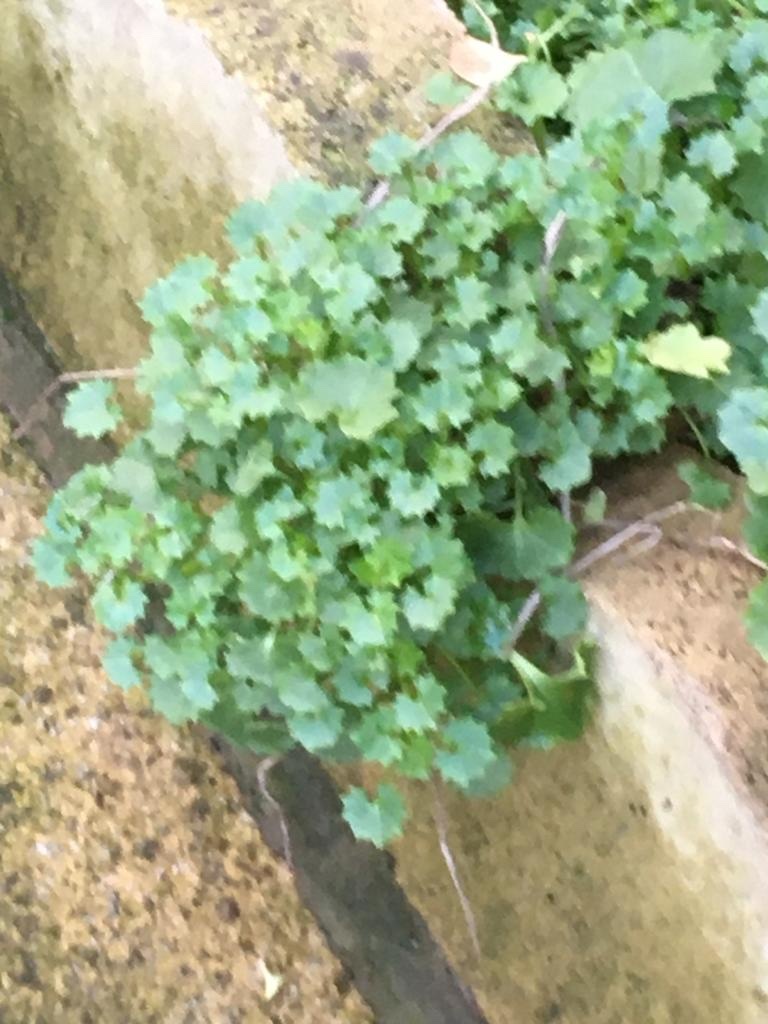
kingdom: Plantae
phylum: Tracheophyta
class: Magnoliopsida
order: Asterales
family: Campanulaceae
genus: Campanula
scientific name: Campanula portenschlagiana
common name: Adria bellflower
